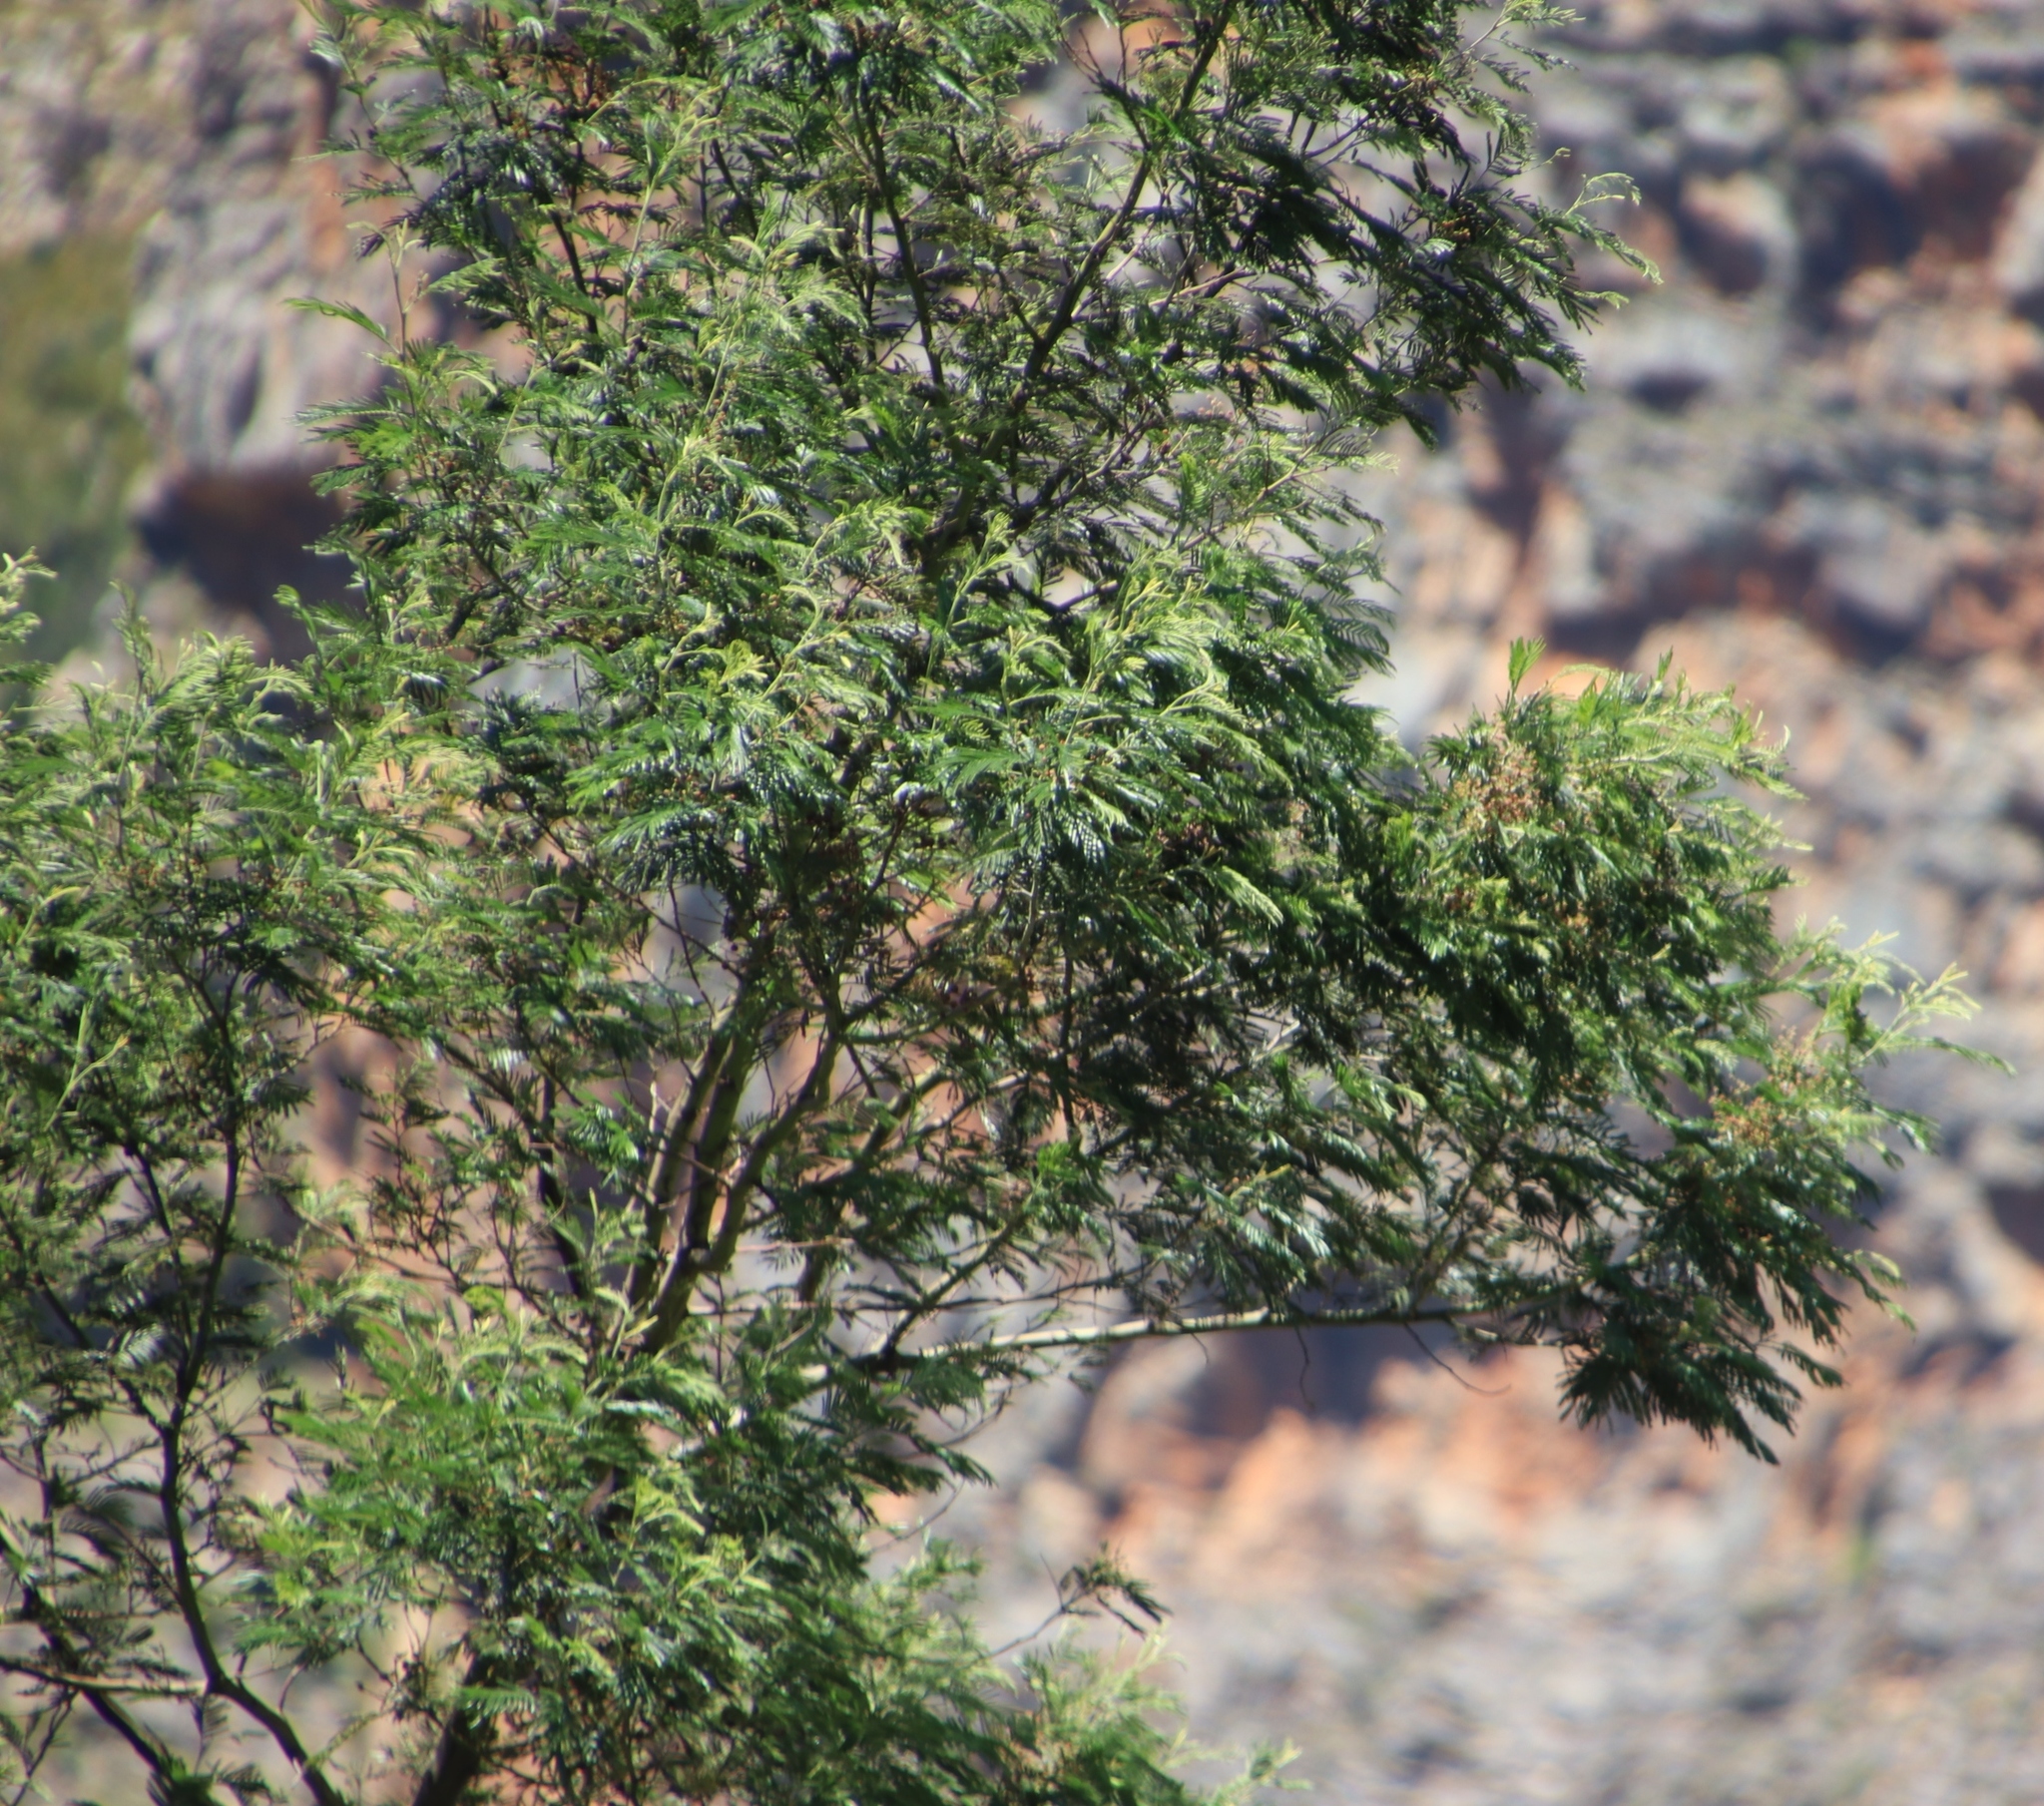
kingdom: Plantae
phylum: Tracheophyta
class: Magnoliopsida
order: Fabales
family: Fabaceae
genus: Acacia
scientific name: Acacia mearnsii
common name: Black wattle
